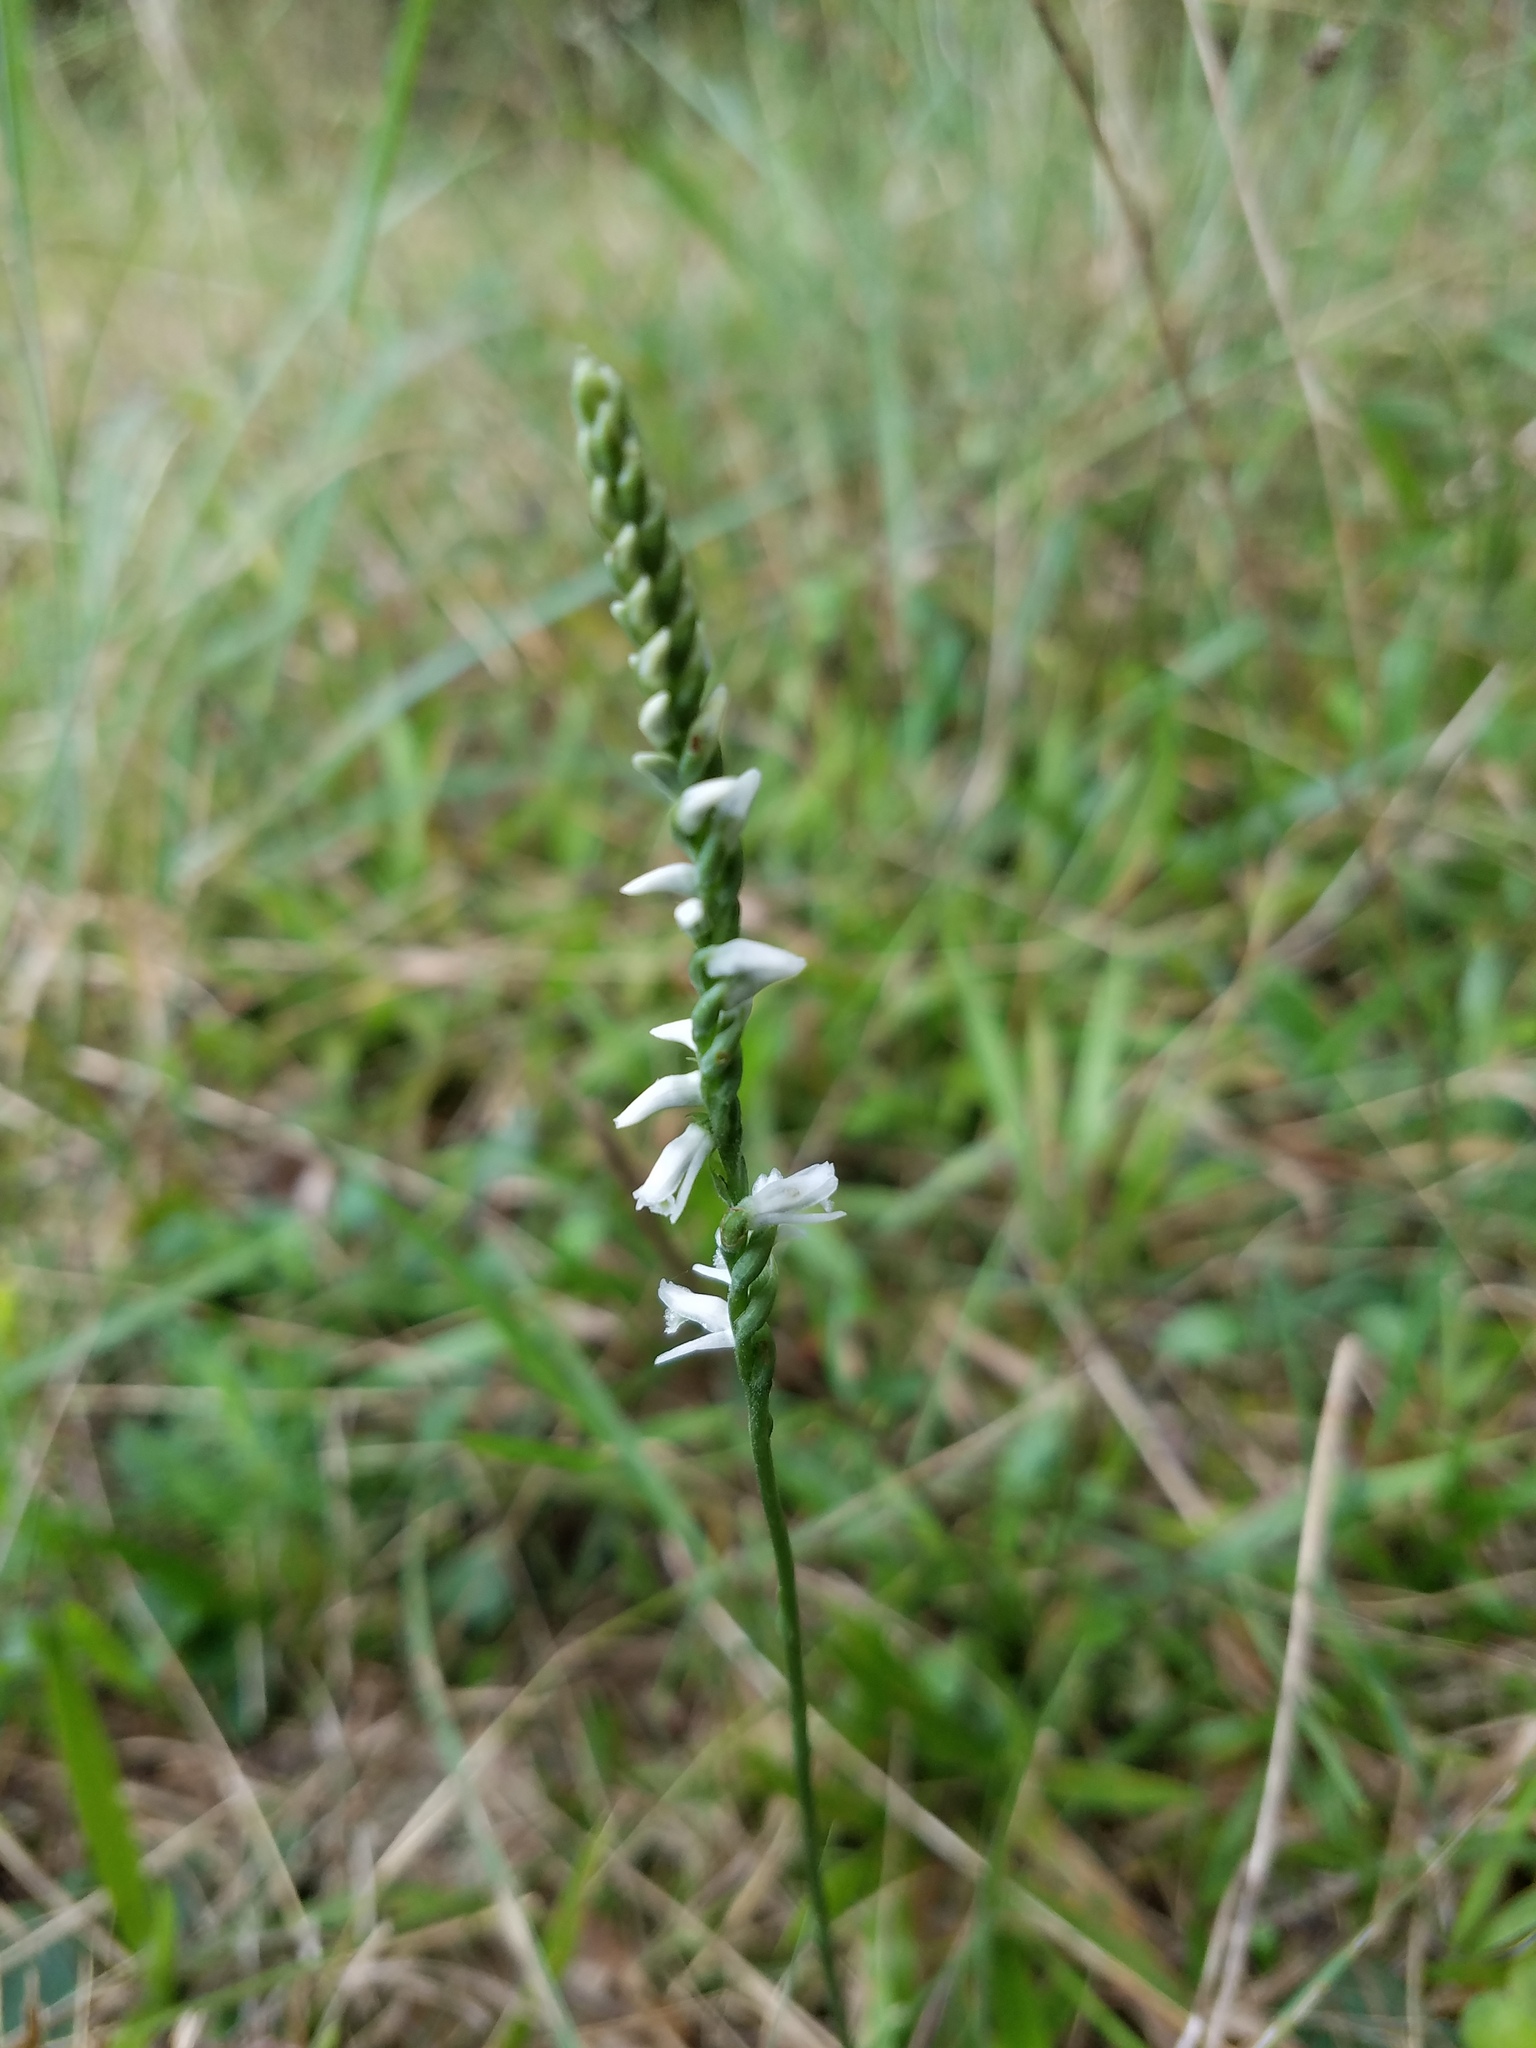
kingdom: Plantae
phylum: Tracheophyta
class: Liliopsida
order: Asparagales
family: Orchidaceae
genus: Spiranthes
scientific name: Spiranthes lacera
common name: Northern slender ladies'-tresses
